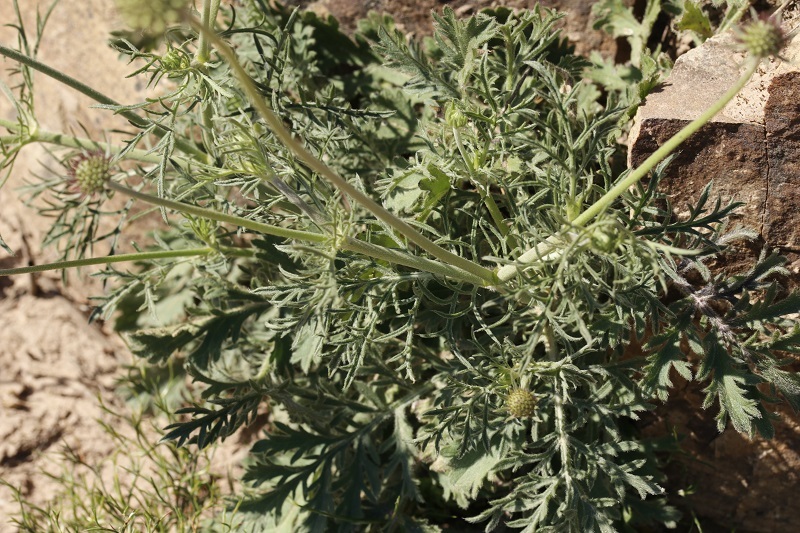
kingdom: Plantae
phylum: Tracheophyta
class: Magnoliopsida
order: Dipsacales
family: Caprifoliaceae
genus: Scabiosa
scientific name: Scabiosa columbaria
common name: Small scabious
